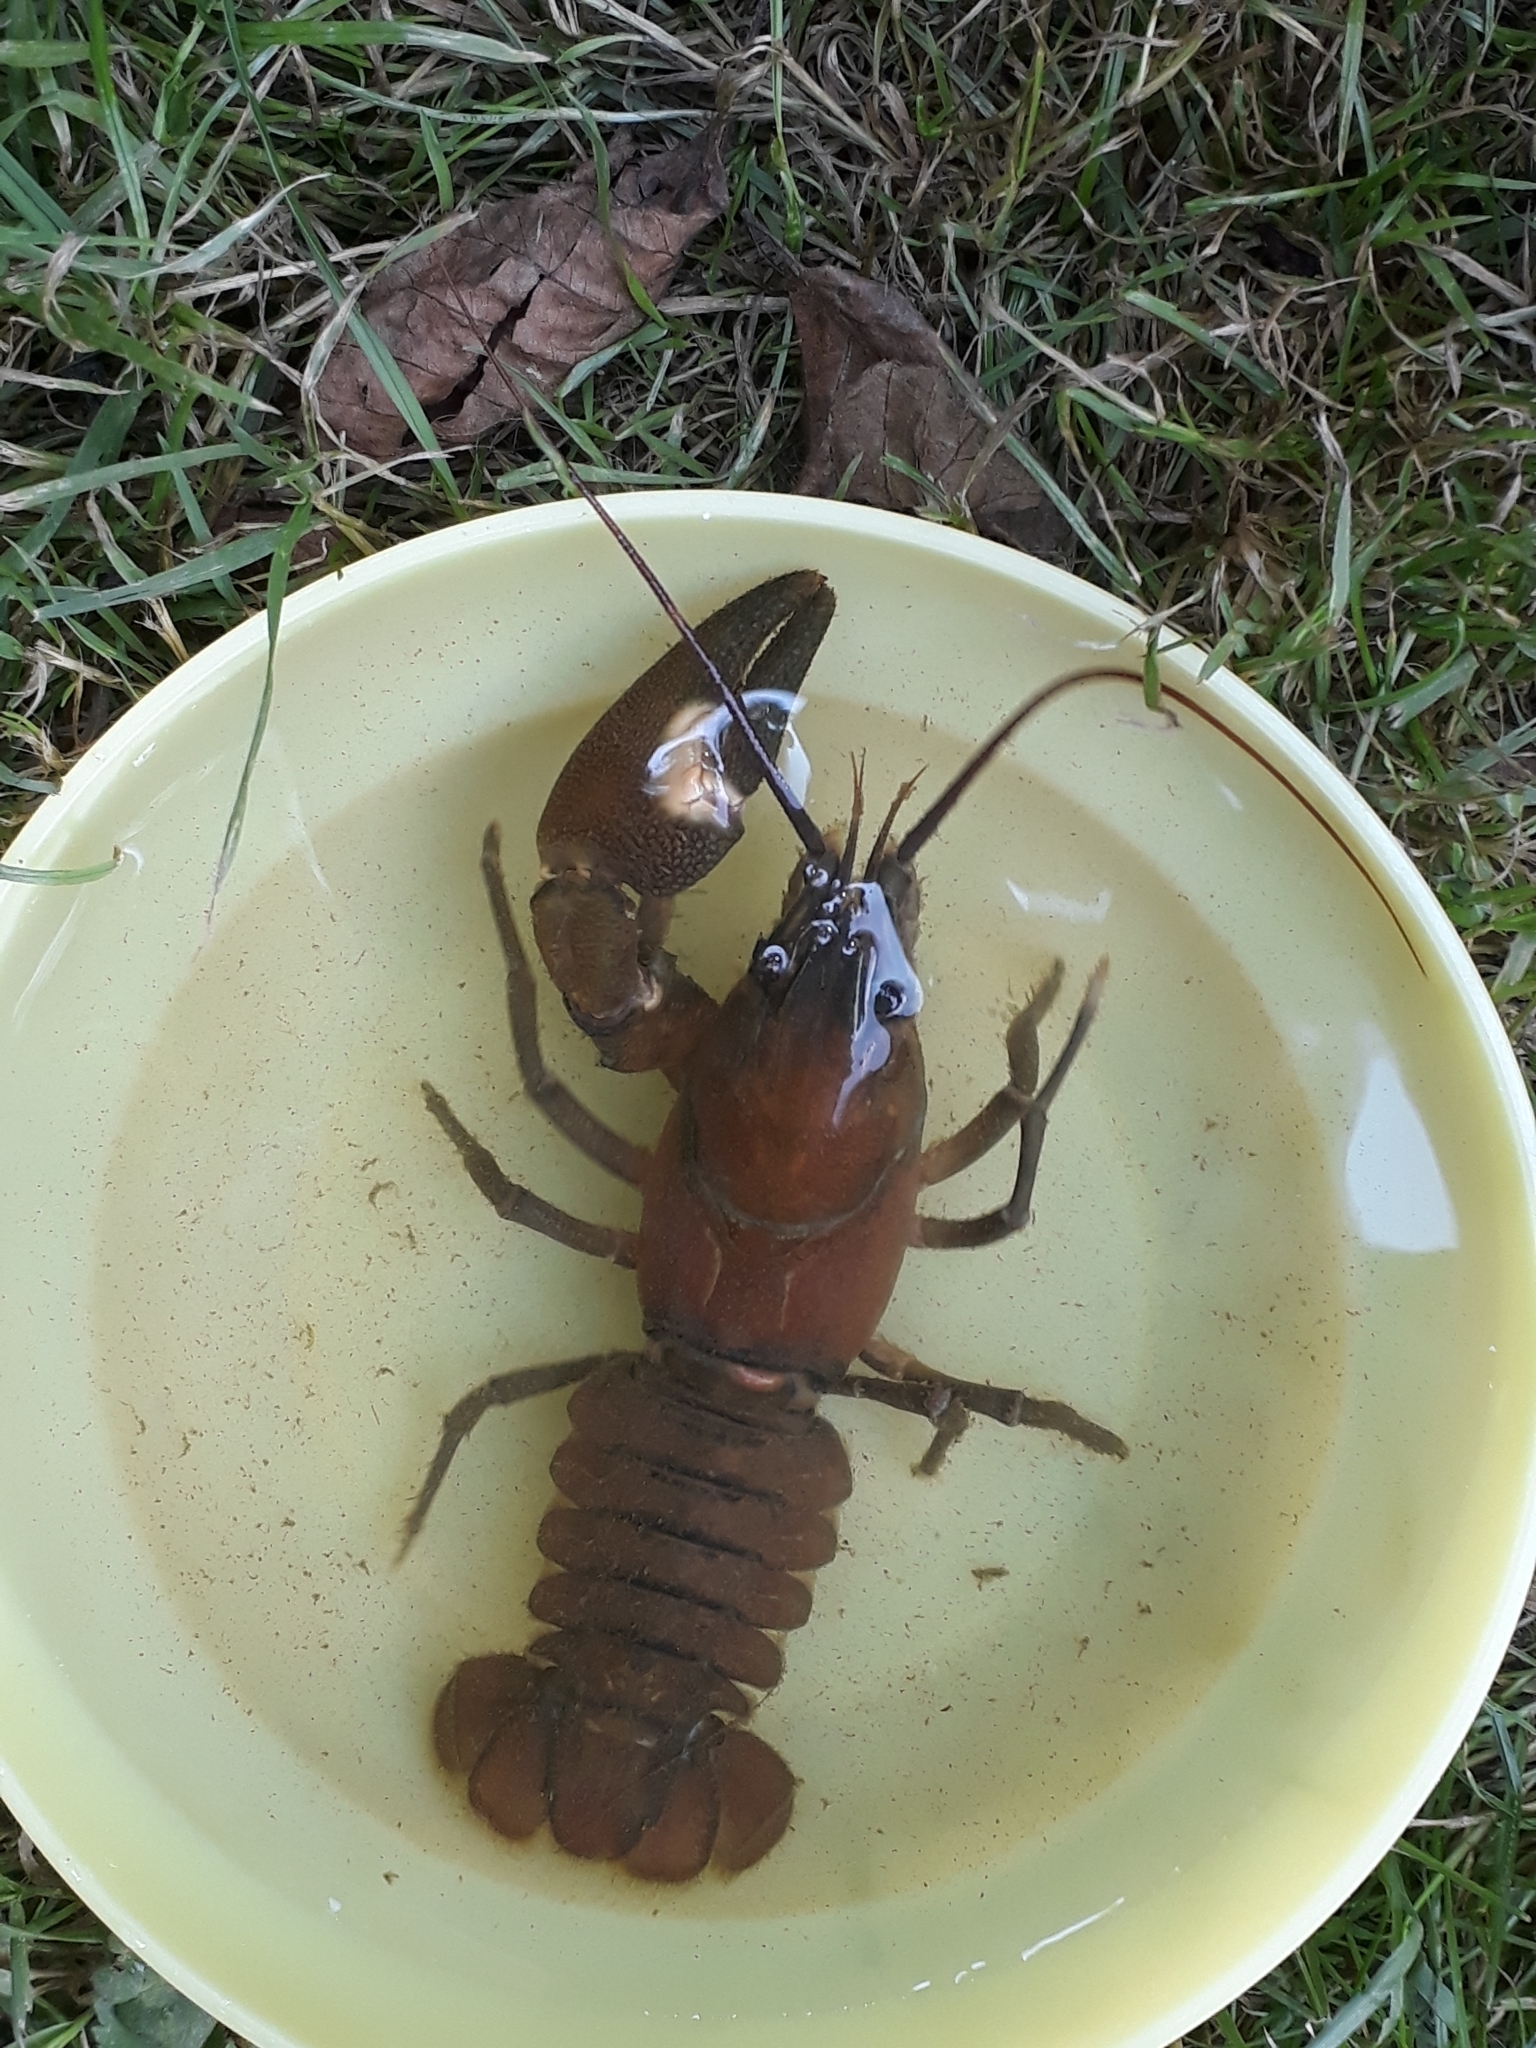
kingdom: Animalia
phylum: Arthropoda
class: Malacostraca
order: Decapoda
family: Astacidae
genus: Pacifastacus
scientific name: Pacifastacus leniusculus
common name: Signal crayfish
